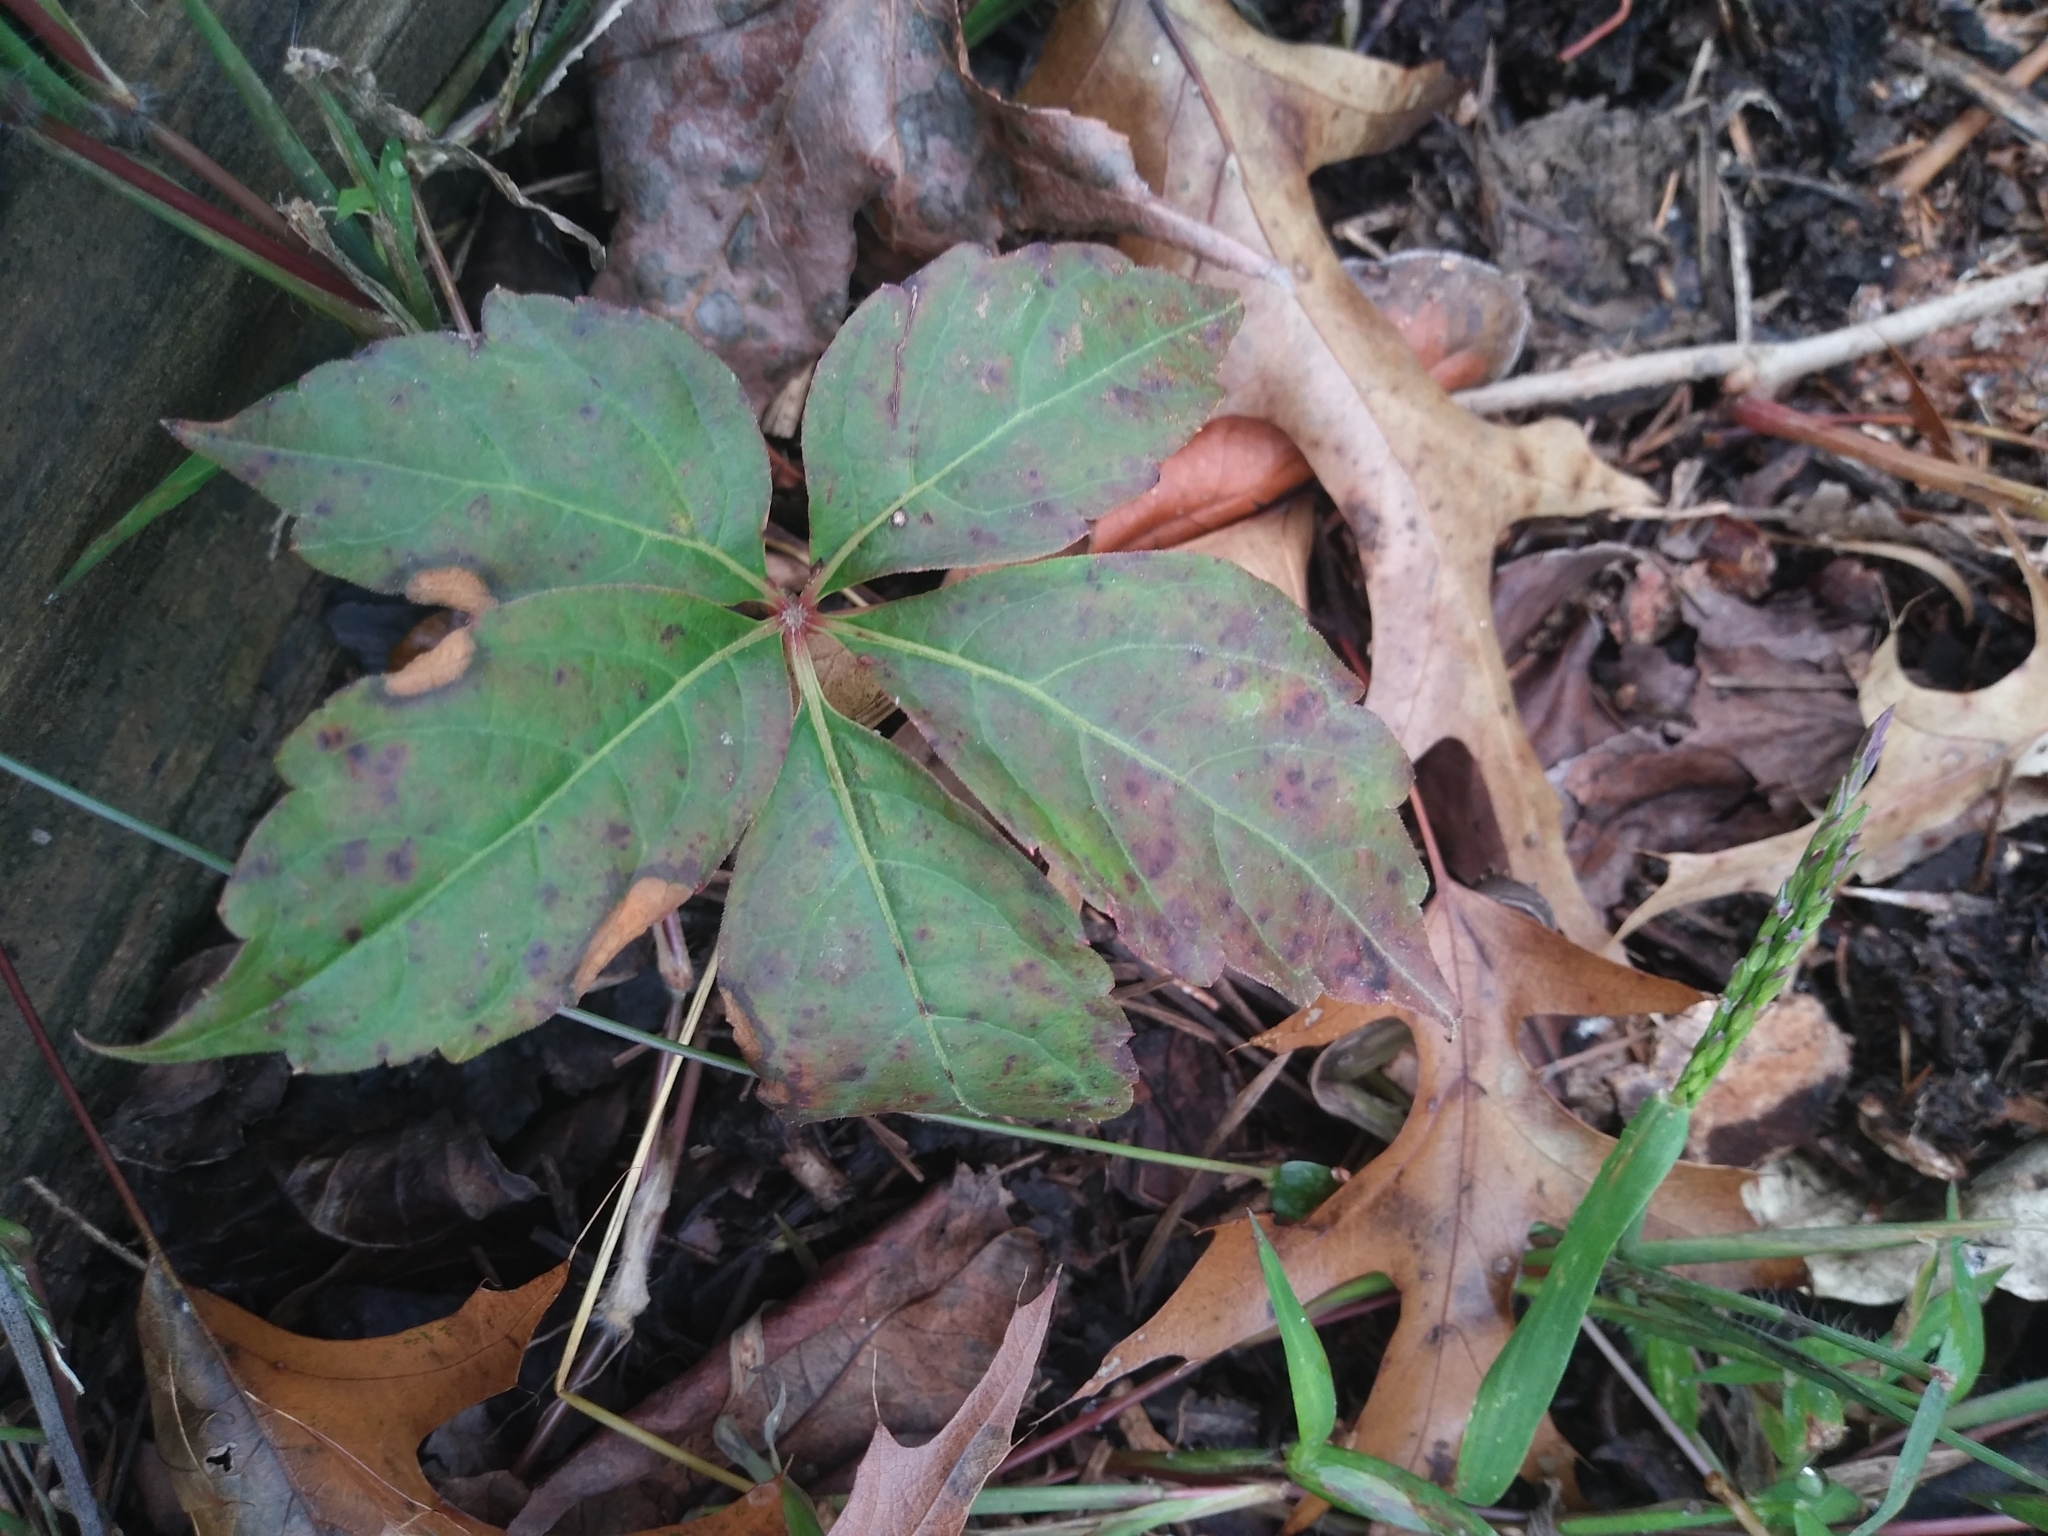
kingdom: Plantae
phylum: Tracheophyta
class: Magnoliopsida
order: Vitales
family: Vitaceae
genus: Parthenocissus
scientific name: Parthenocissus quinquefolia
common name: Virginia-creeper
